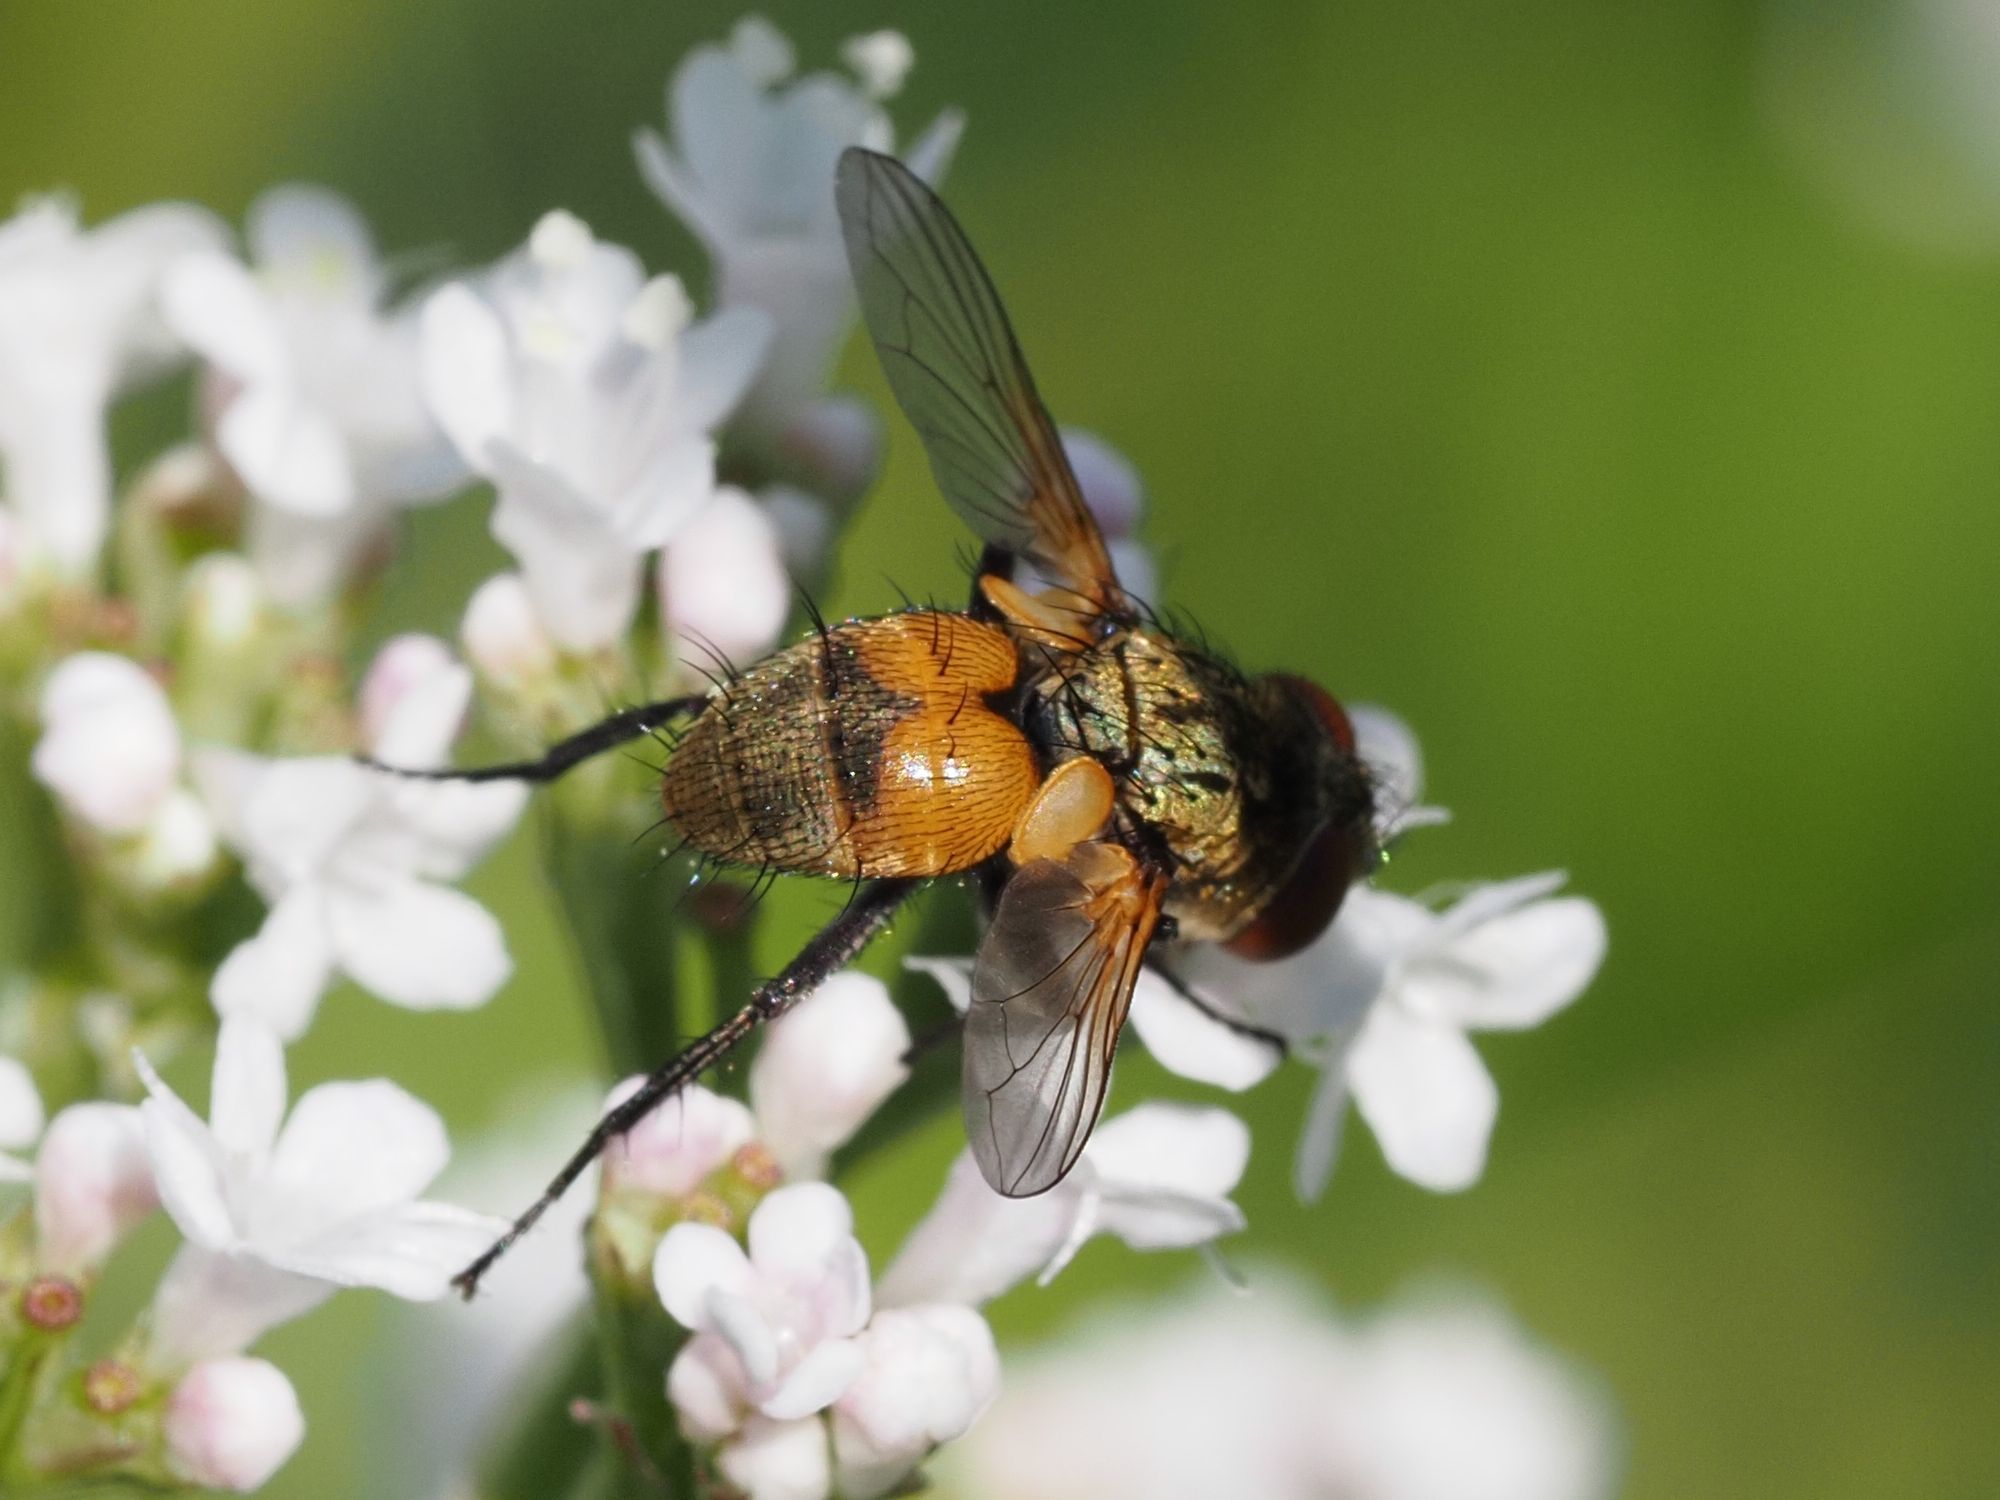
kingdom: Animalia
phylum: Arthropoda
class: Insecta
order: Diptera
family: Tachinidae
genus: Eliozeta
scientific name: Eliozeta pellucens
